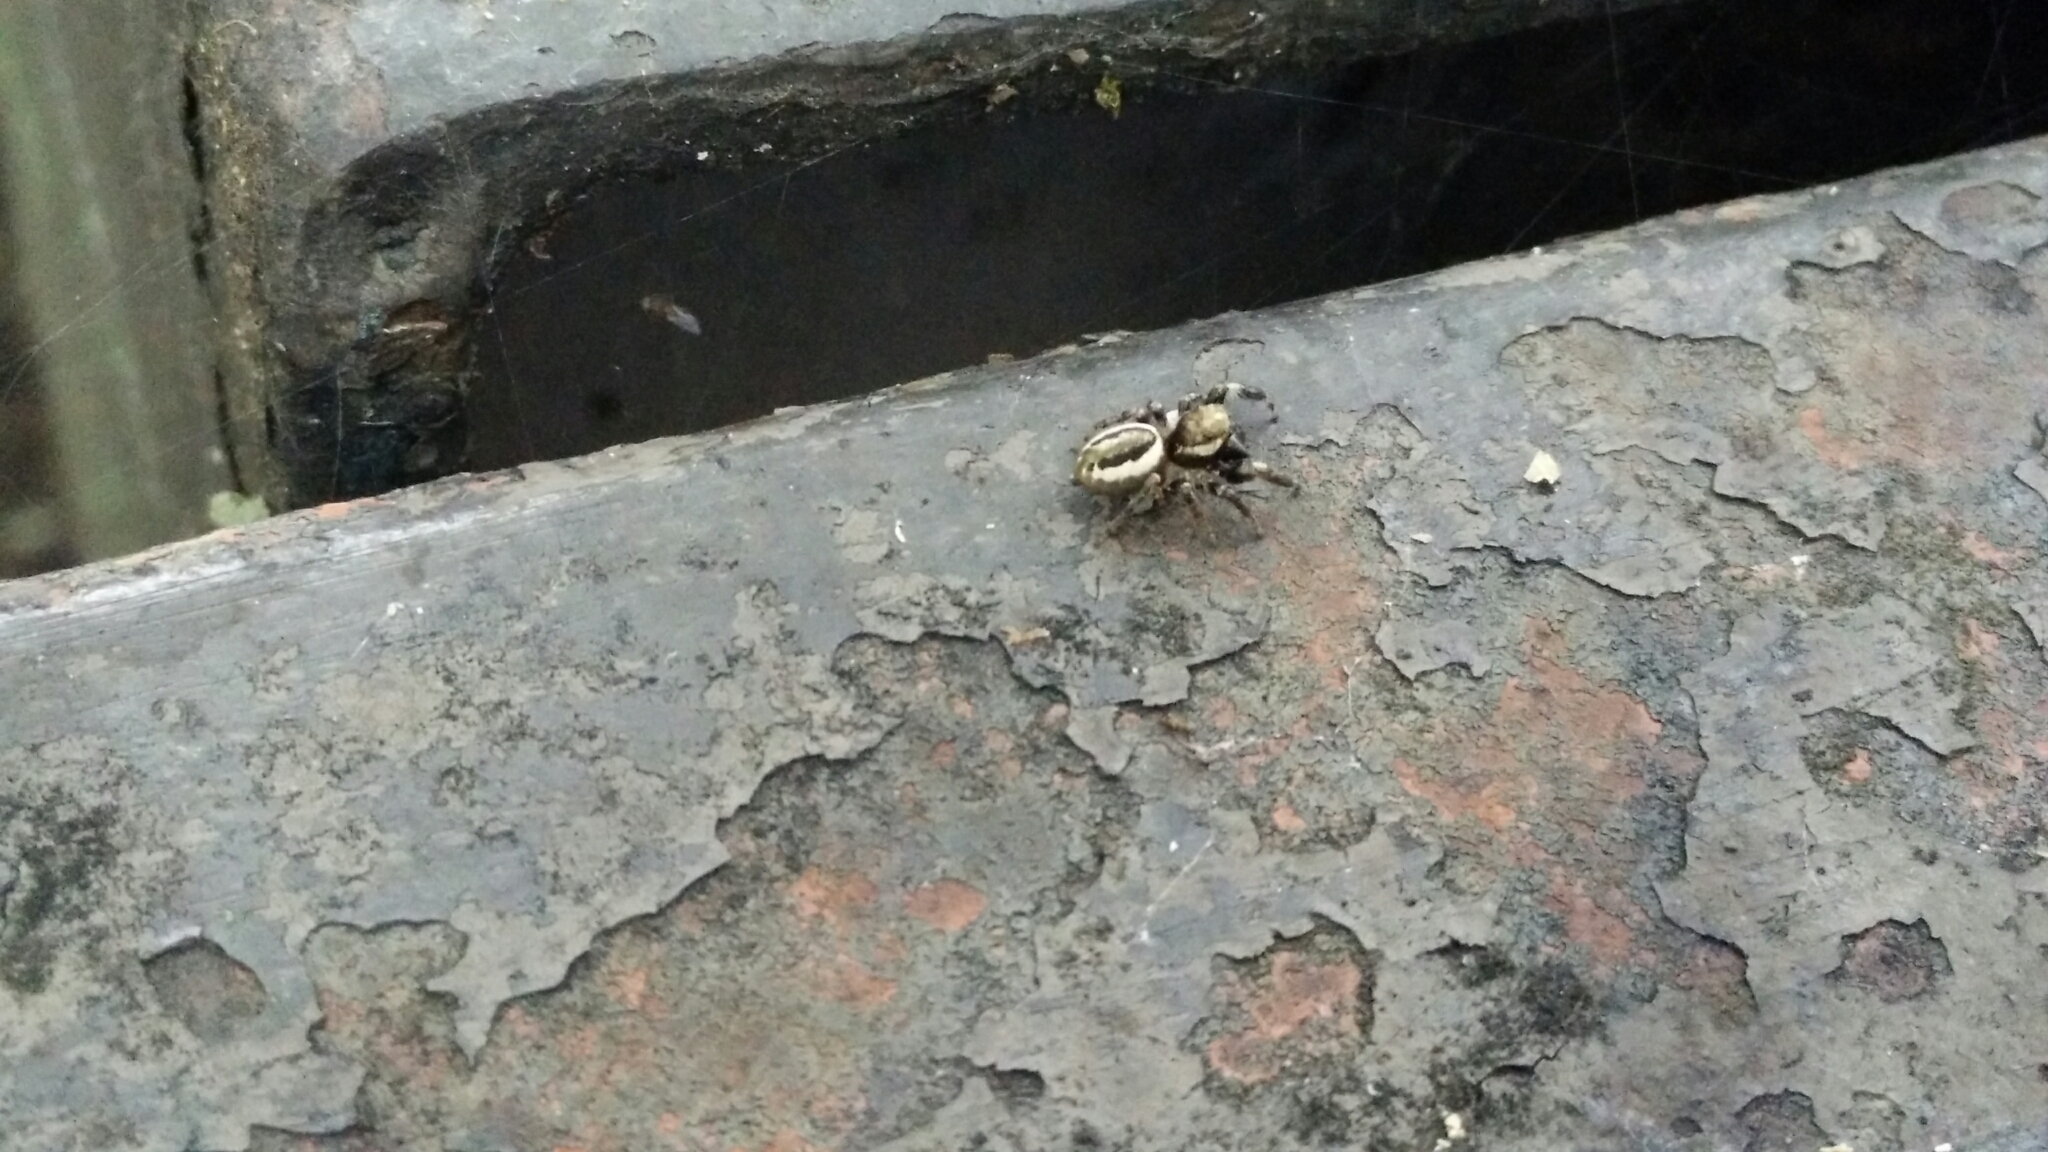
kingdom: Animalia
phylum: Arthropoda
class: Arachnida
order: Araneae
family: Salticidae
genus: Eris
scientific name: Eris militaris
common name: Bronze jumper
